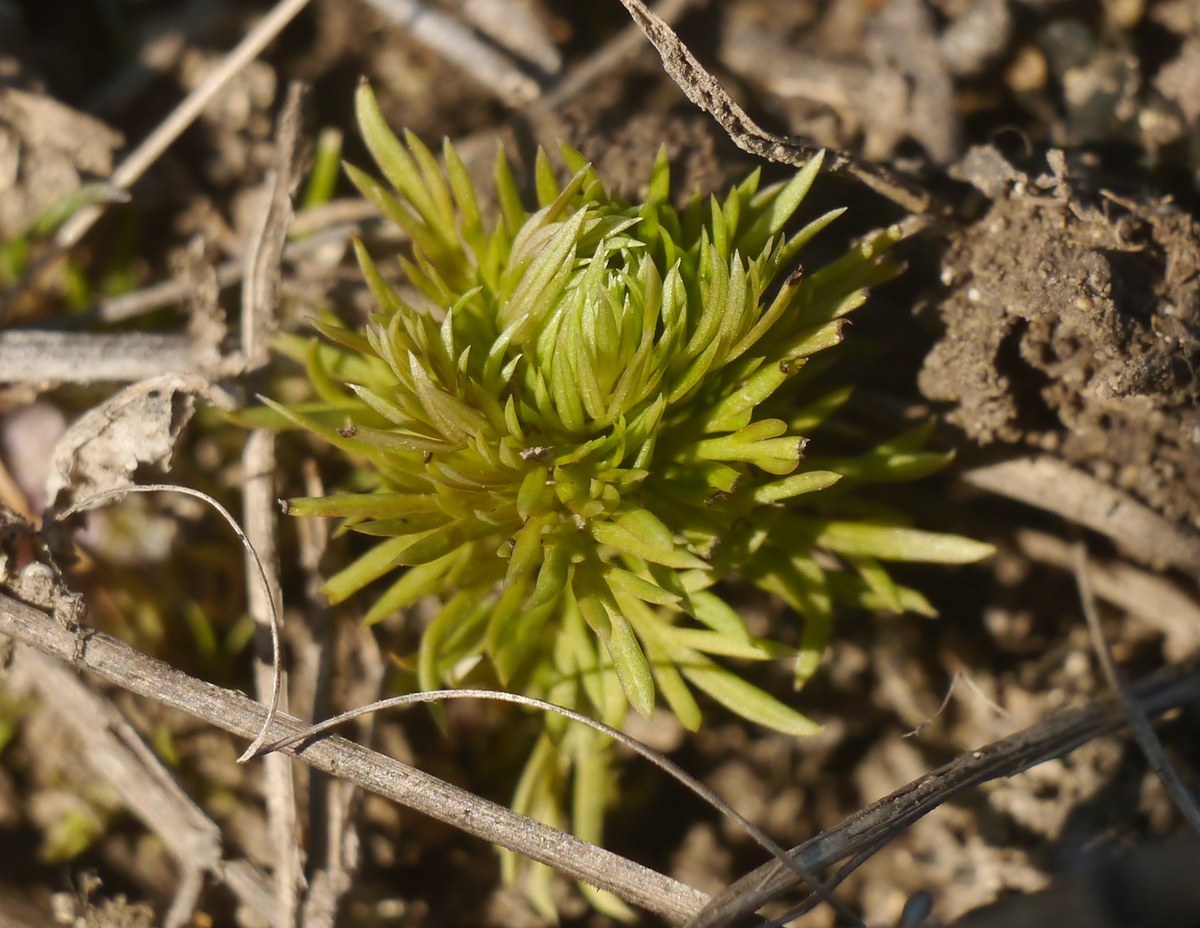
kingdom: Plantae
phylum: Tracheophyta
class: Magnoliopsida
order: Ranunculales
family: Ranunculaceae
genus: Adonis
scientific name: Adonis vernalis
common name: Yellow pheasants-eye
